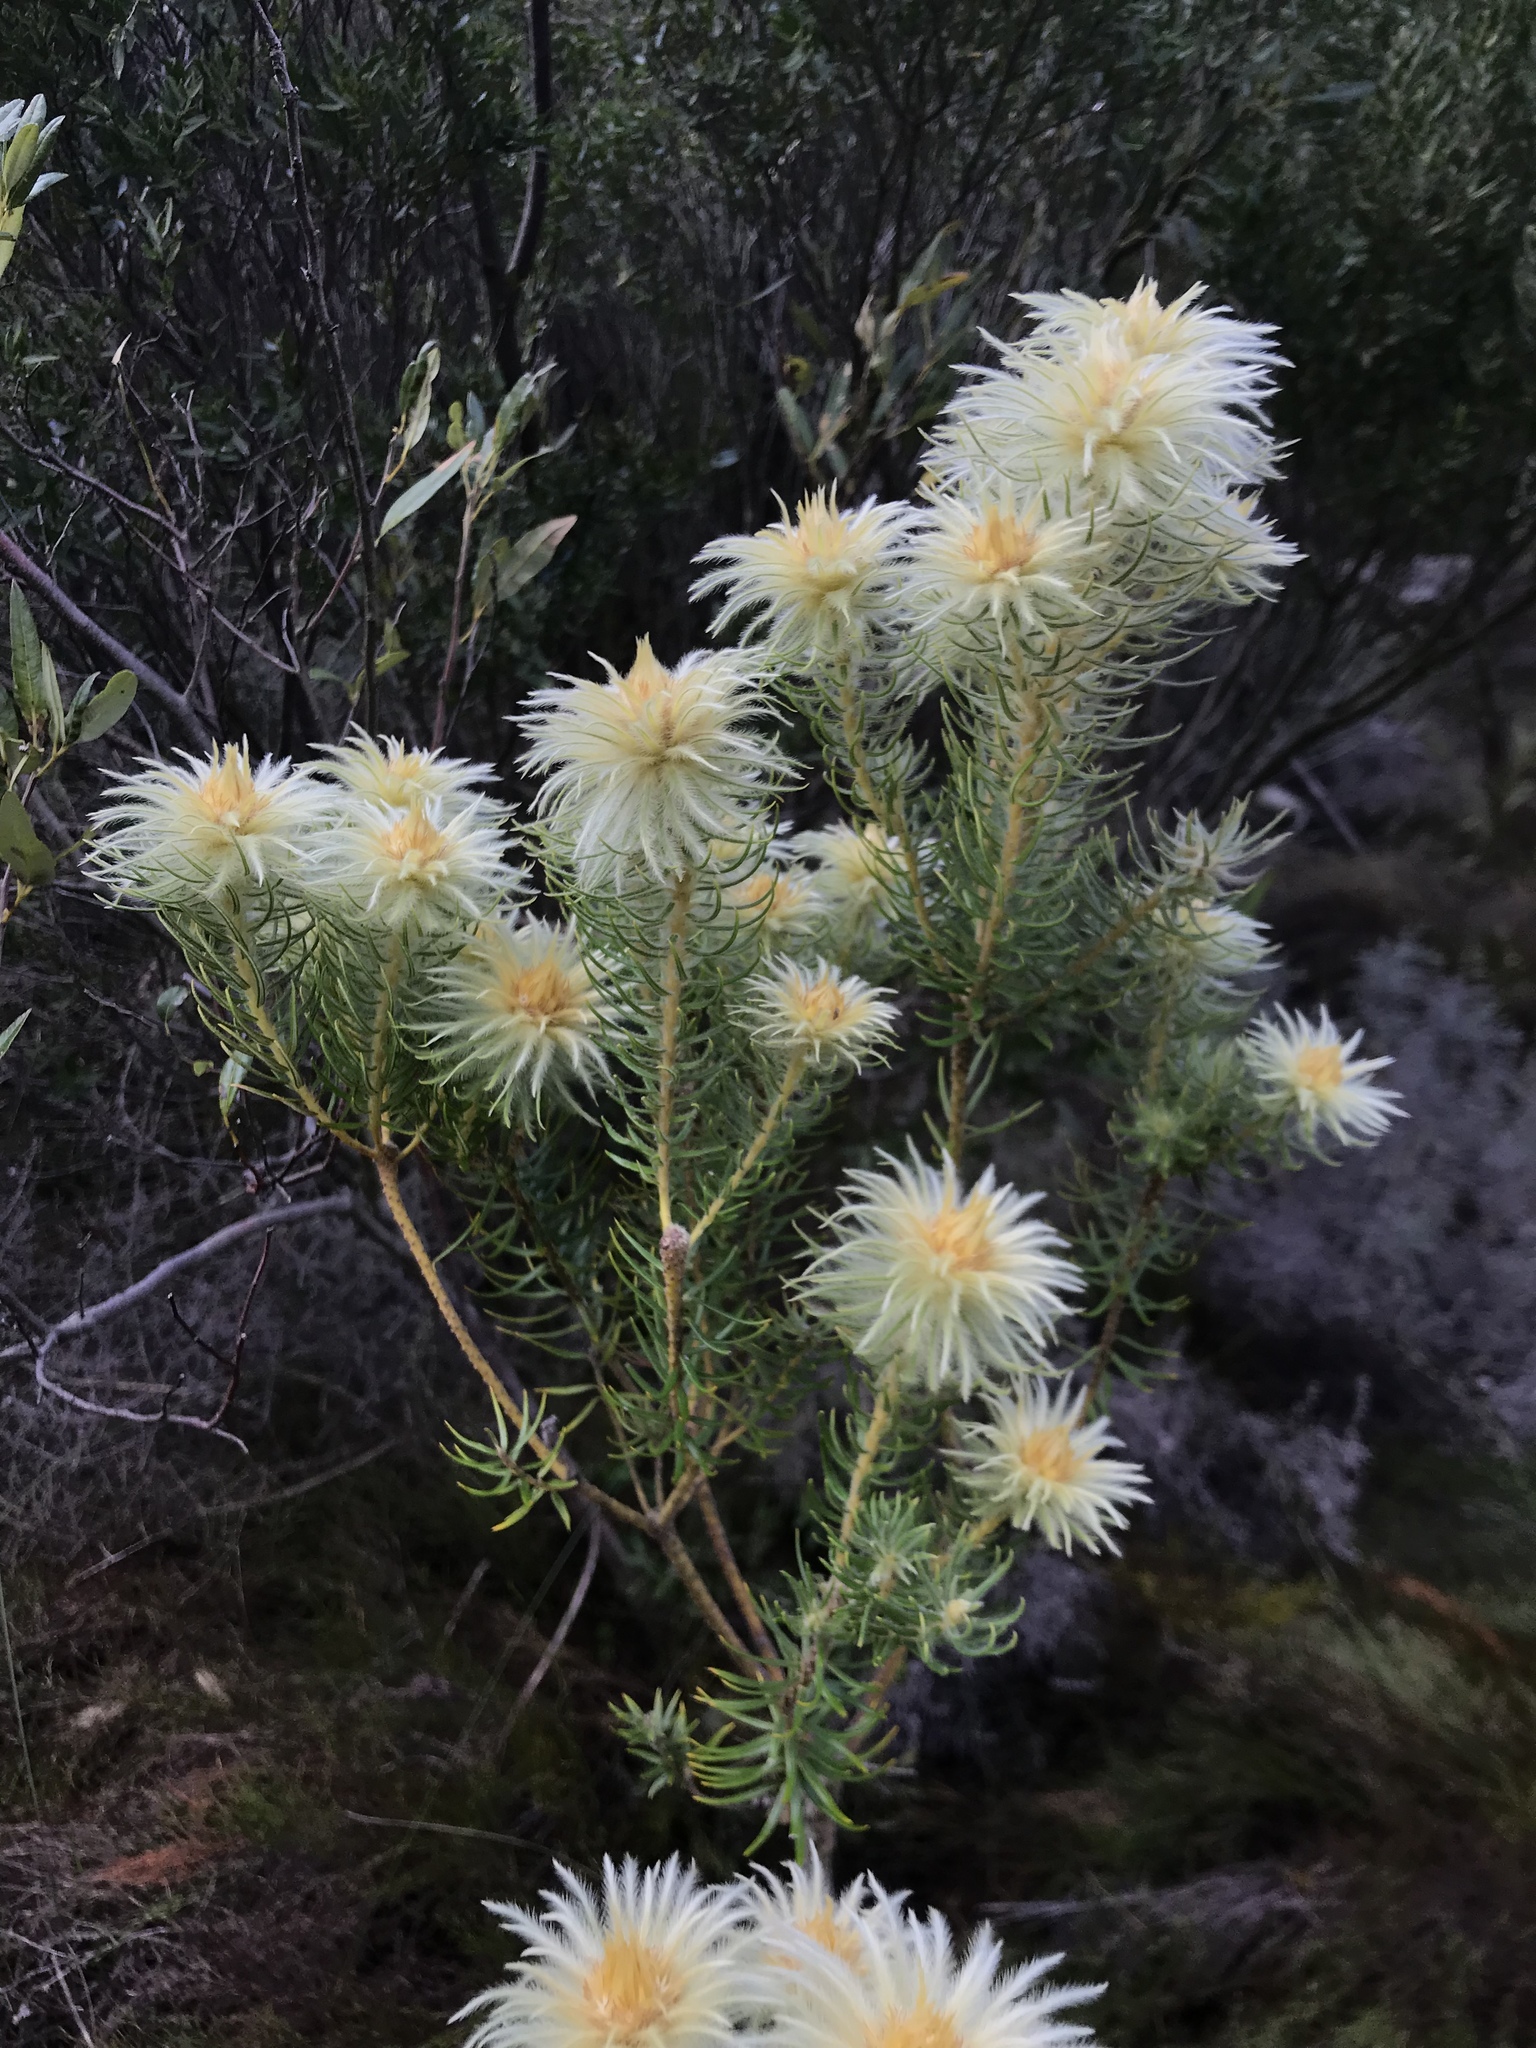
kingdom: Plantae
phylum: Tracheophyta
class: Magnoliopsida
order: Rosales
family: Rhamnaceae
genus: Phylica
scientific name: Phylica pubescens
